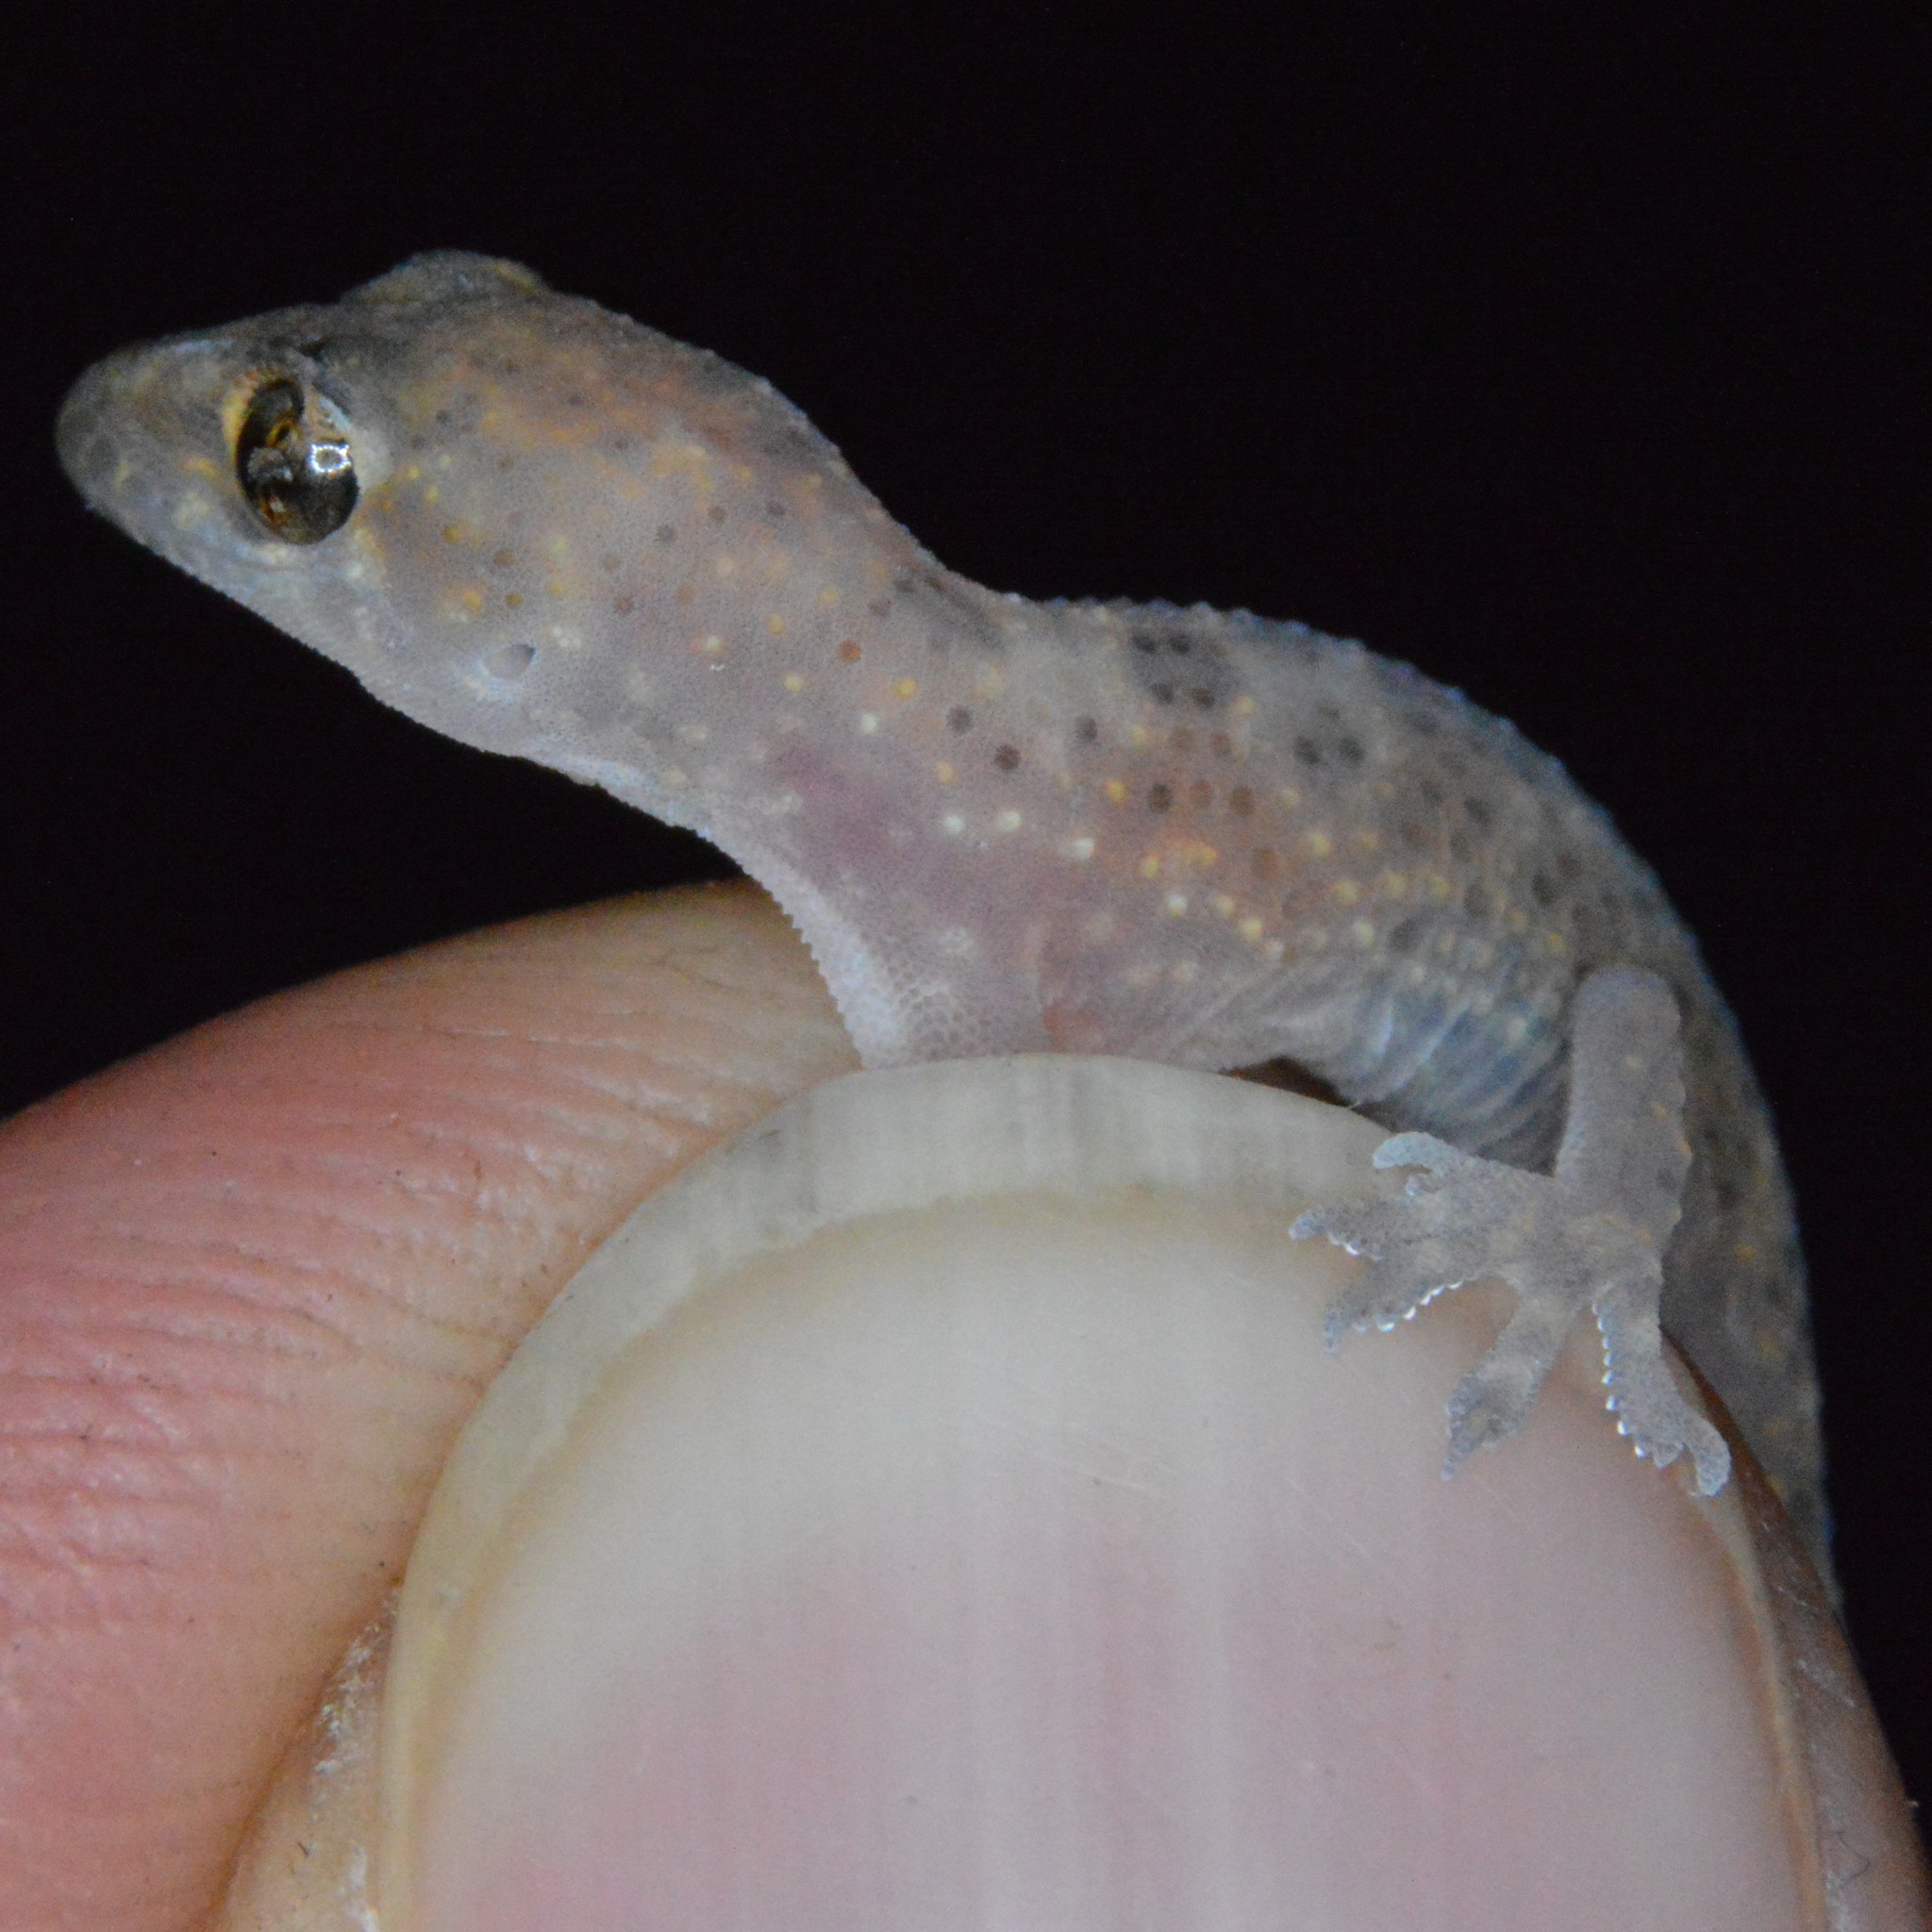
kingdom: Animalia
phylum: Chordata
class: Squamata
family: Gekkonidae
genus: Hemidactylus
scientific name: Hemidactylus turcicus
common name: Turkish gecko
